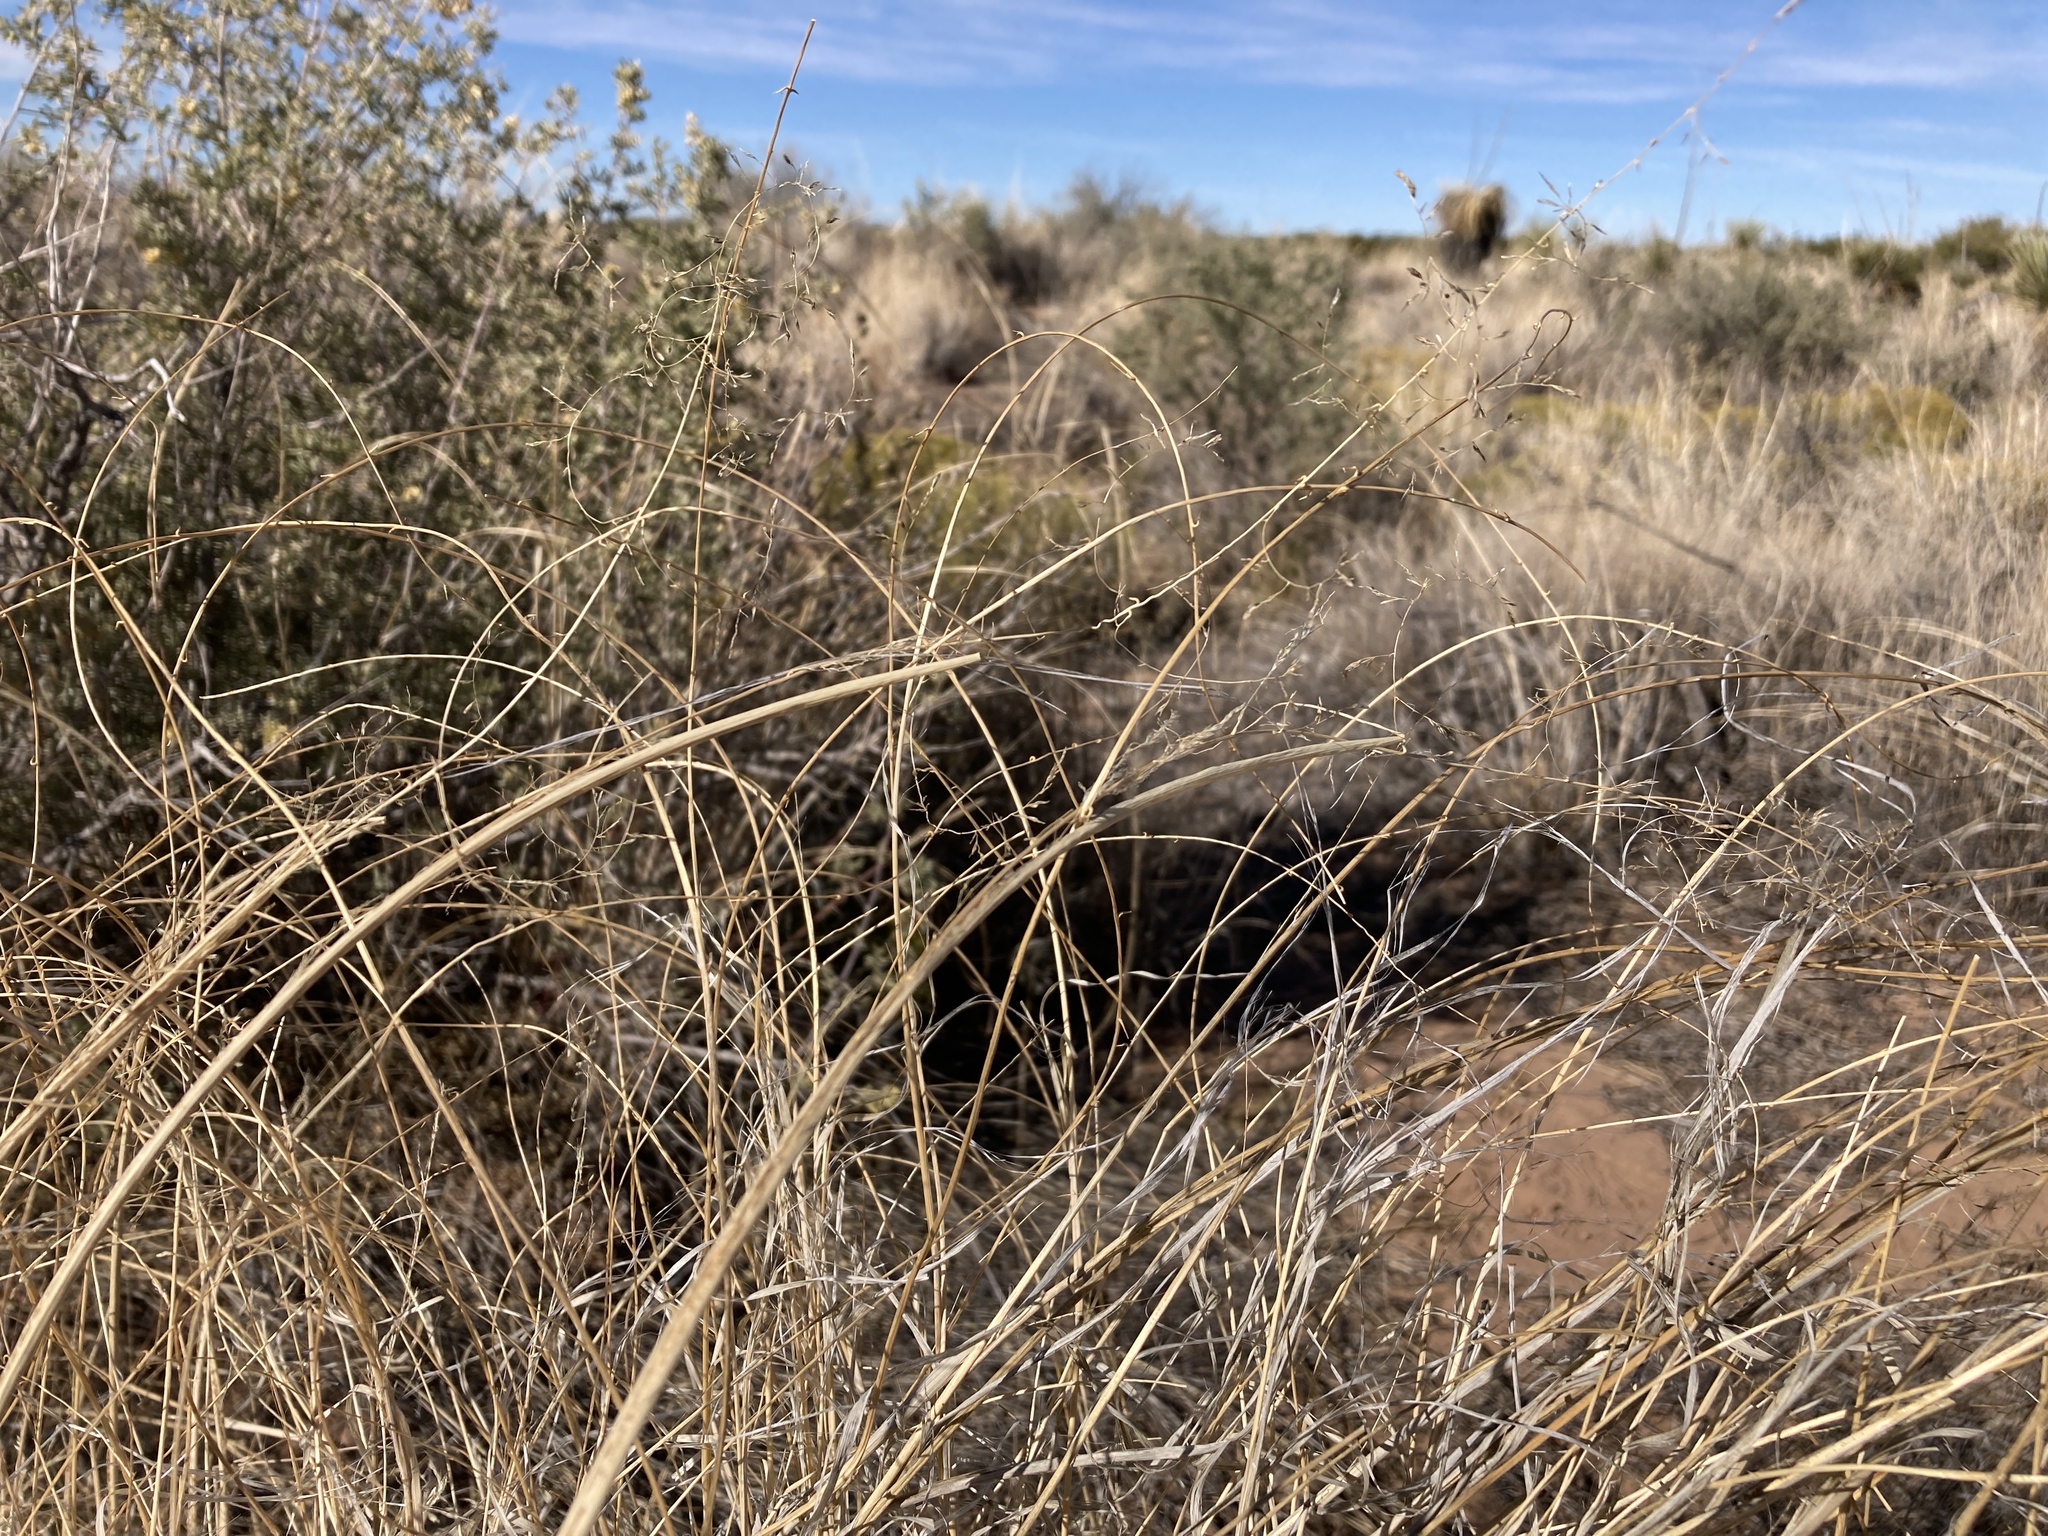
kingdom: Plantae
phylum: Tracheophyta
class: Liliopsida
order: Poales
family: Poaceae
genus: Sporobolus
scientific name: Sporobolus flexuosus
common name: Mesa dropseed
